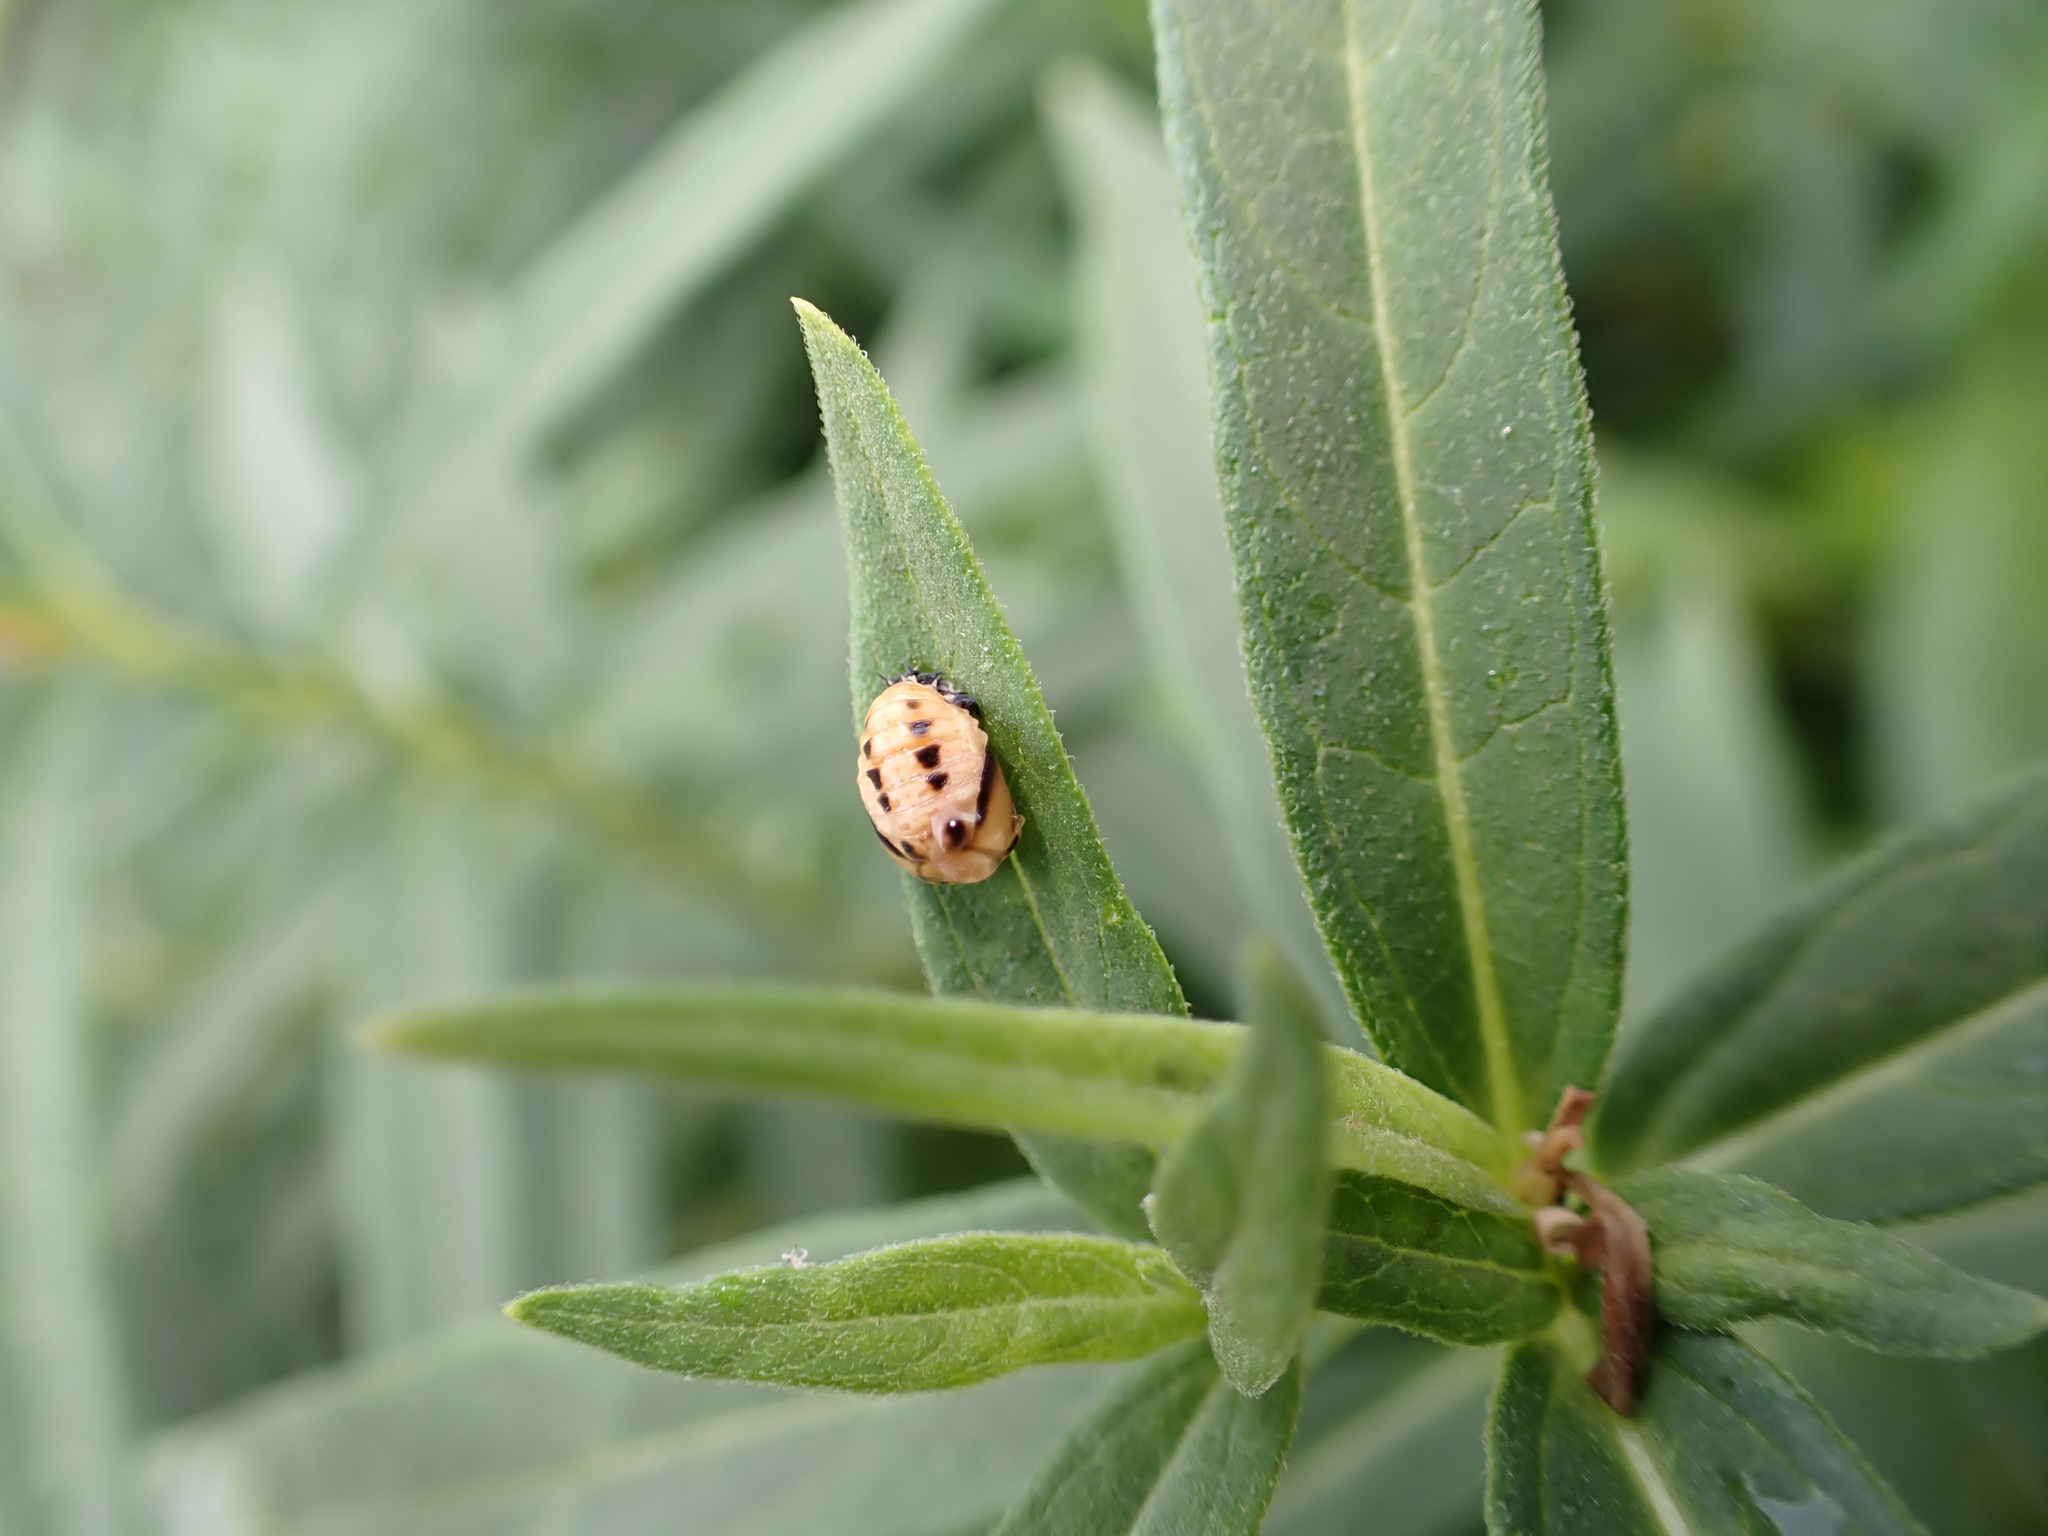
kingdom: Animalia
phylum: Arthropoda
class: Insecta
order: Coleoptera
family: Coccinellidae
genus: Harmonia
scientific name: Harmonia axyridis
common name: Harlequin ladybird
